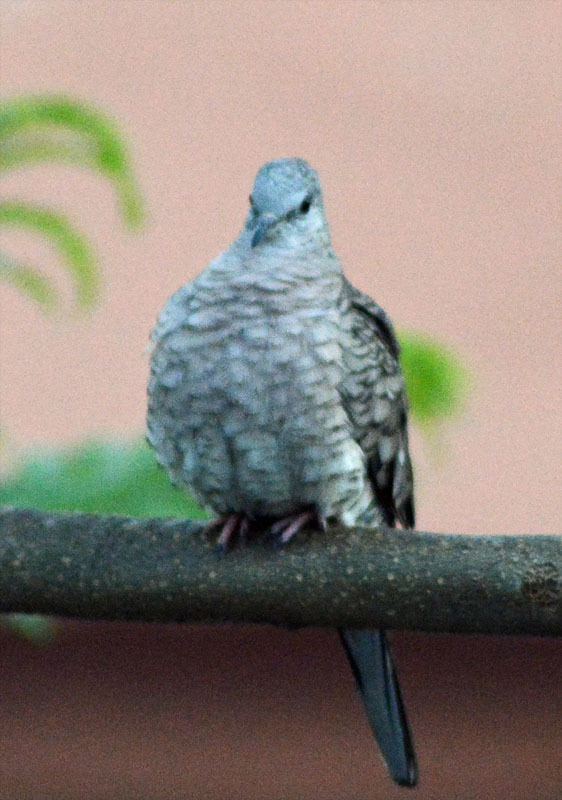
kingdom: Animalia
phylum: Chordata
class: Aves
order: Columbiformes
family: Columbidae
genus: Columbina
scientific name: Columbina inca
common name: Inca dove
